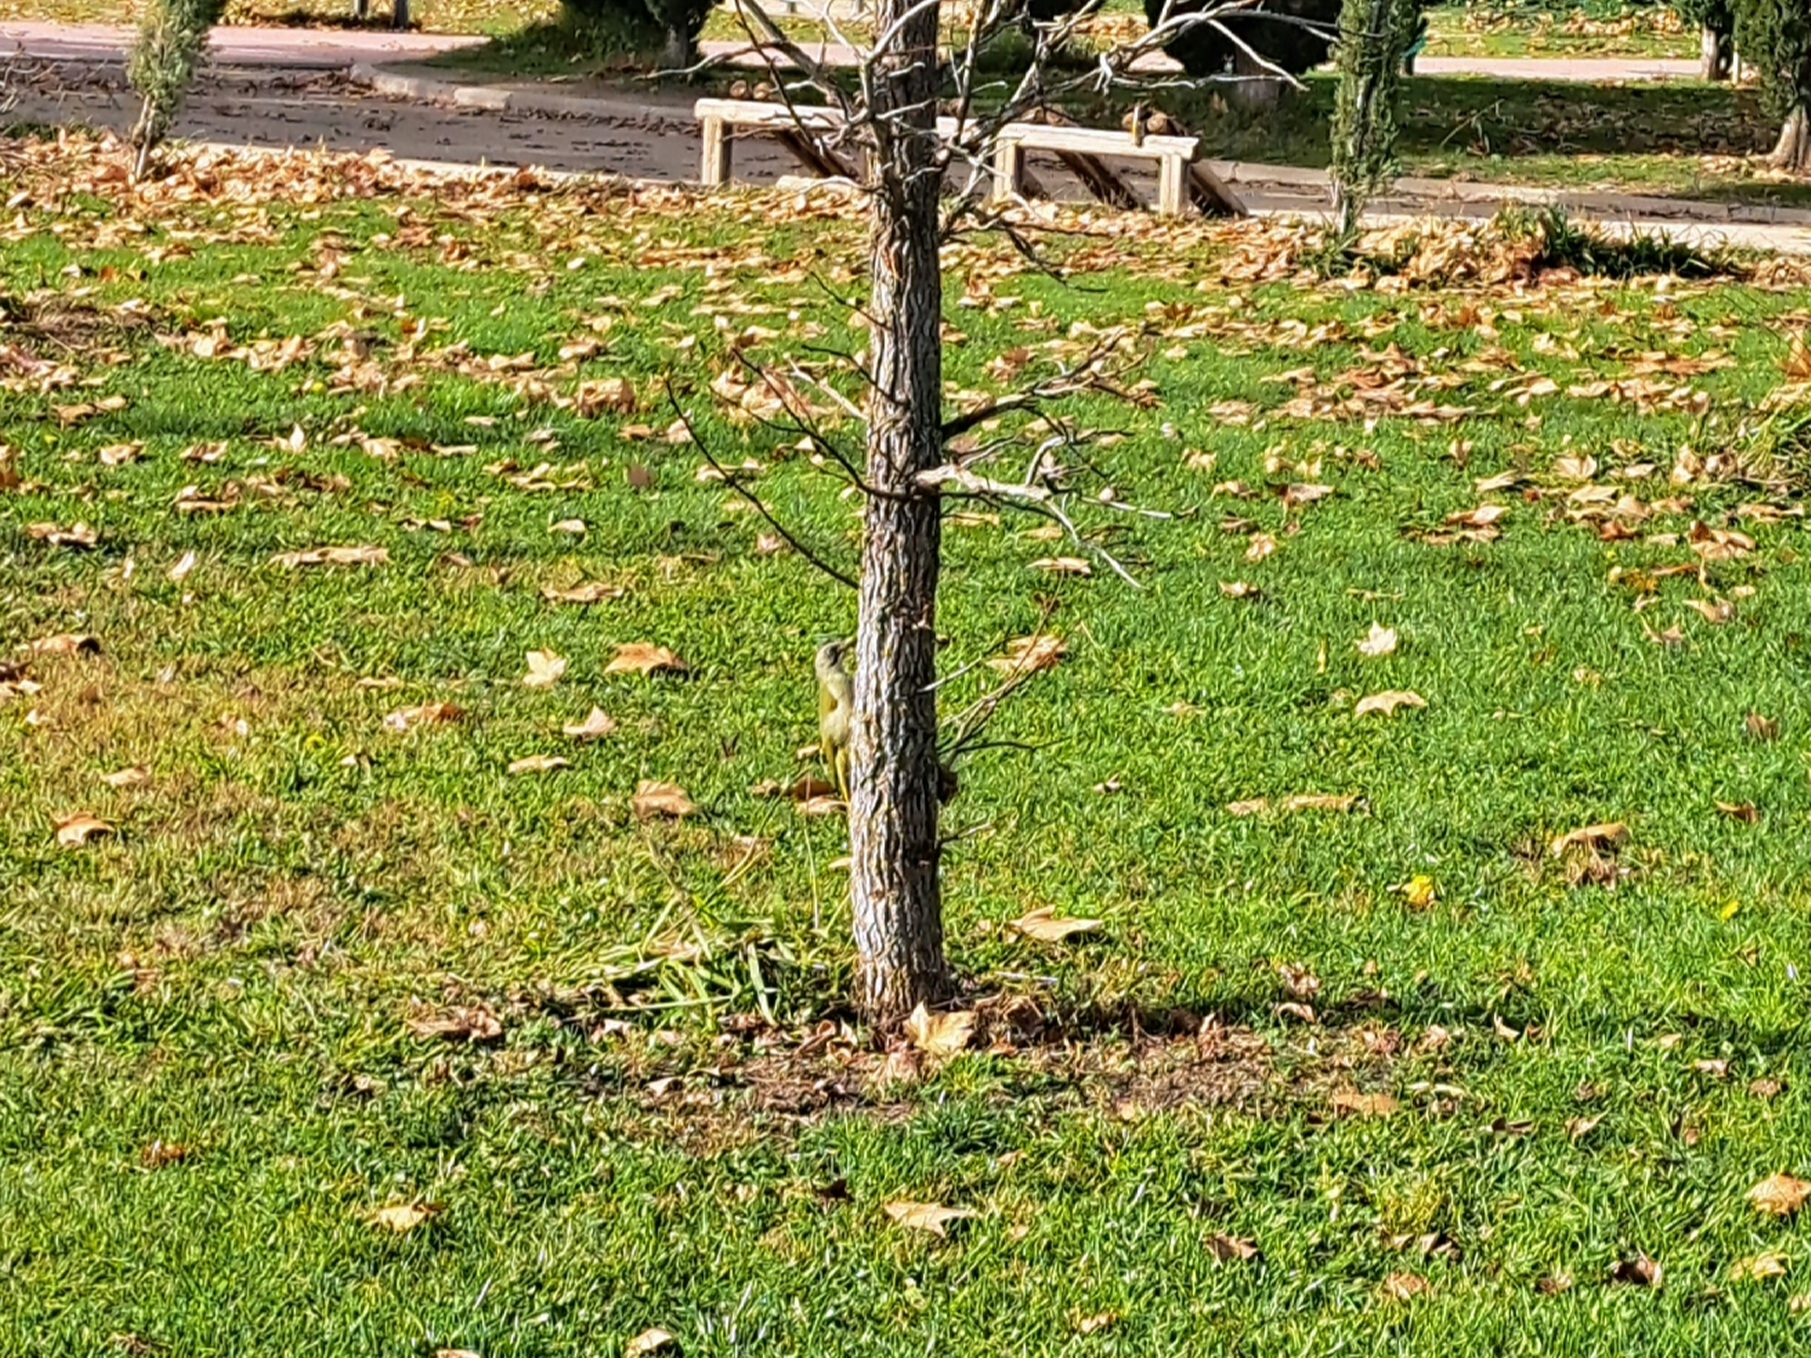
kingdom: Animalia
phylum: Chordata
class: Aves
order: Piciformes
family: Picidae
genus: Picus
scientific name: Picus sharpei
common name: Iberian green woodpecker
